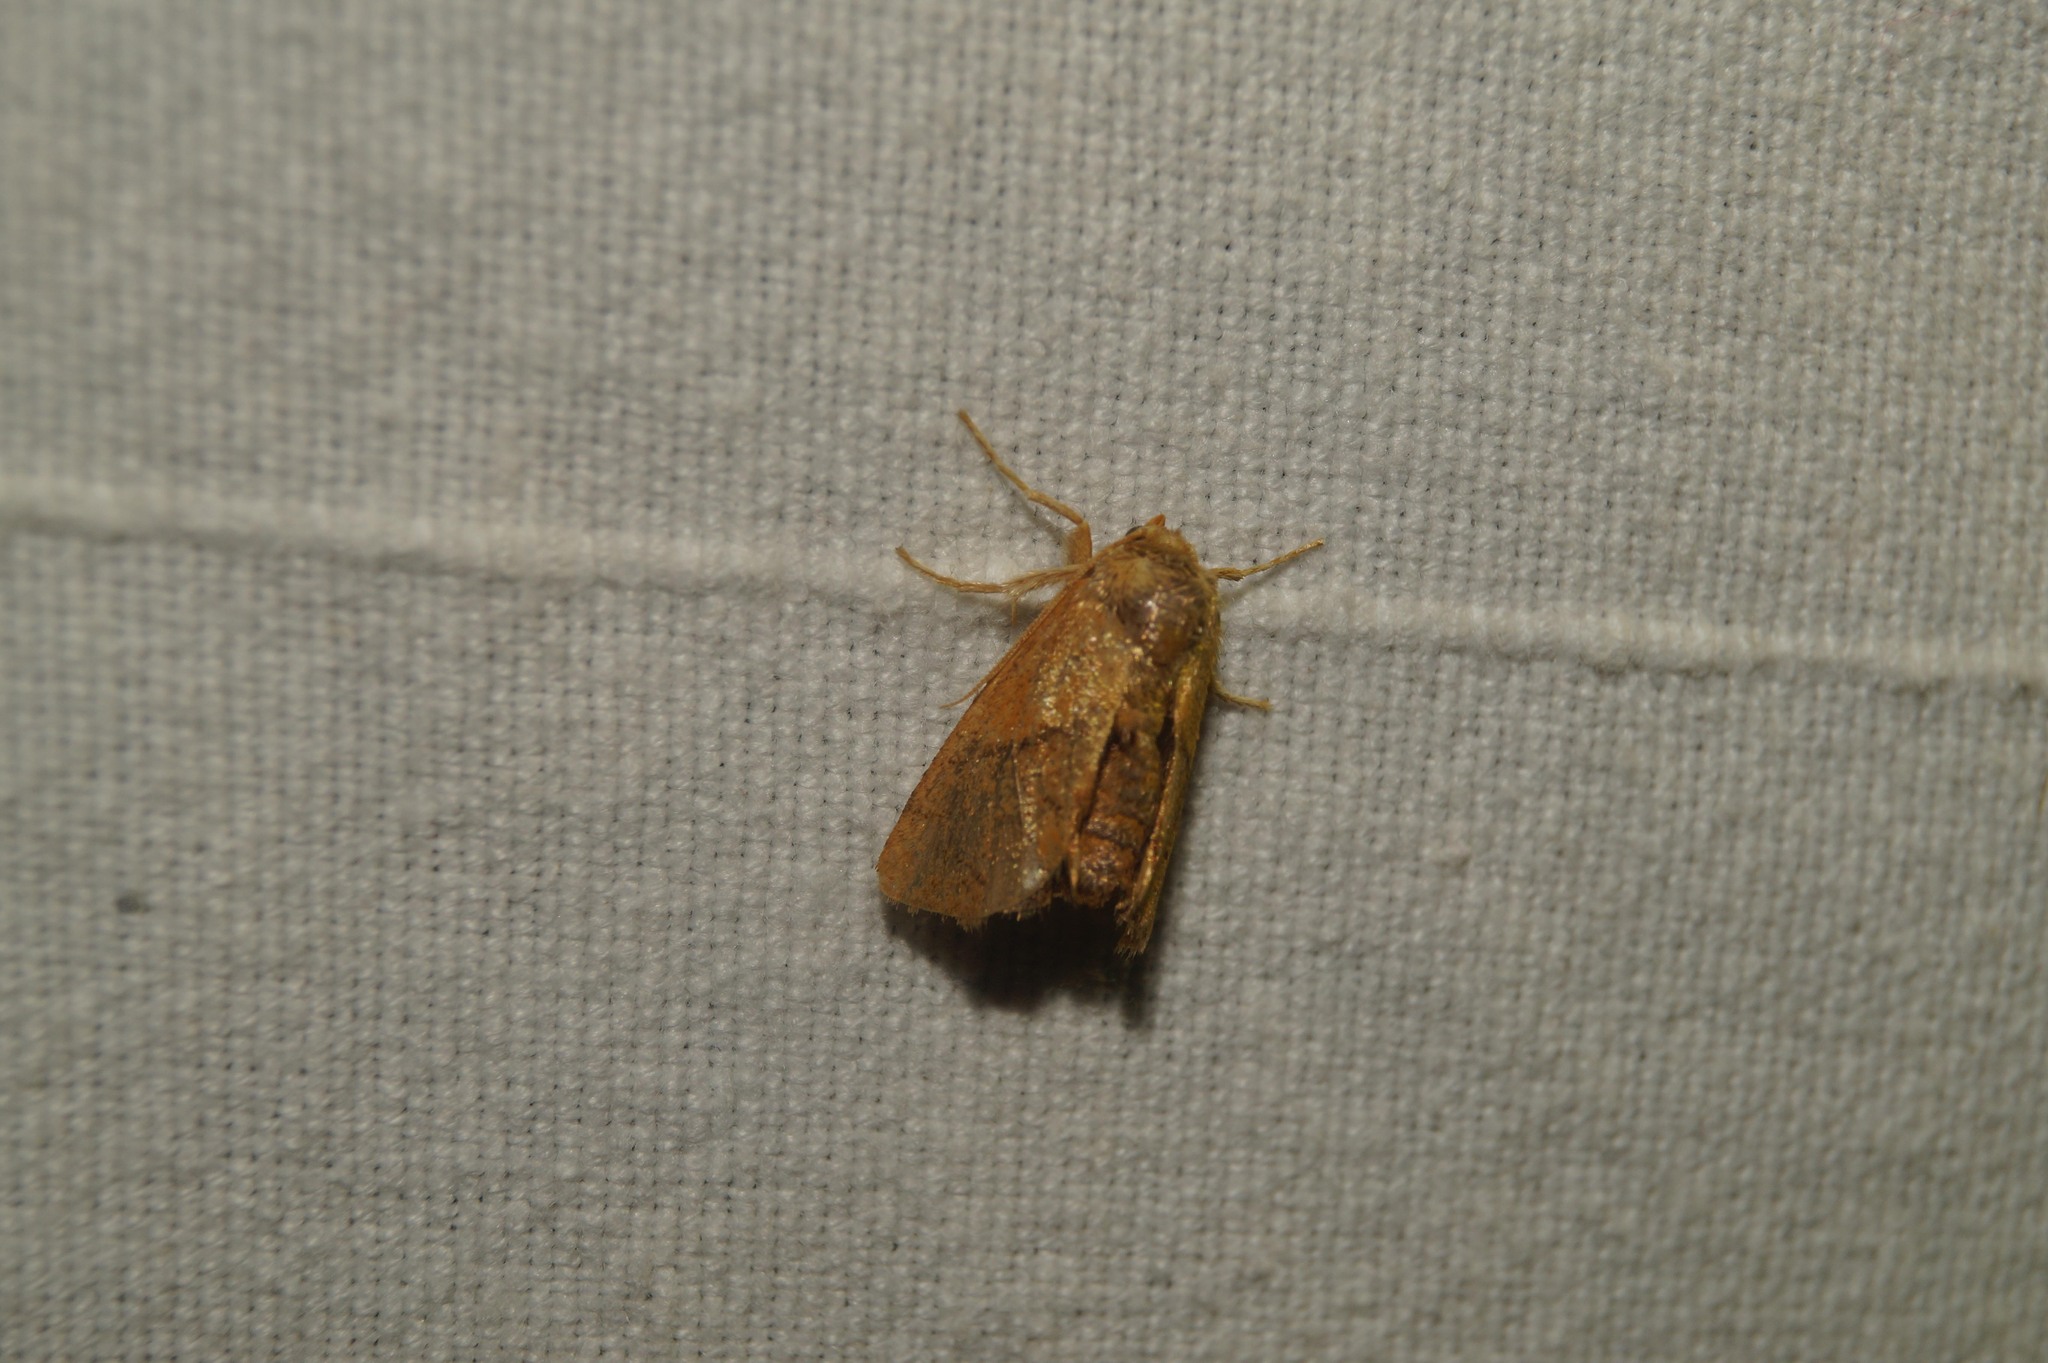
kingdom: Animalia
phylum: Arthropoda
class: Insecta
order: Lepidoptera
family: Limacodidae
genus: Apoda
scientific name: Apoda limacodes
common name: Festoon
